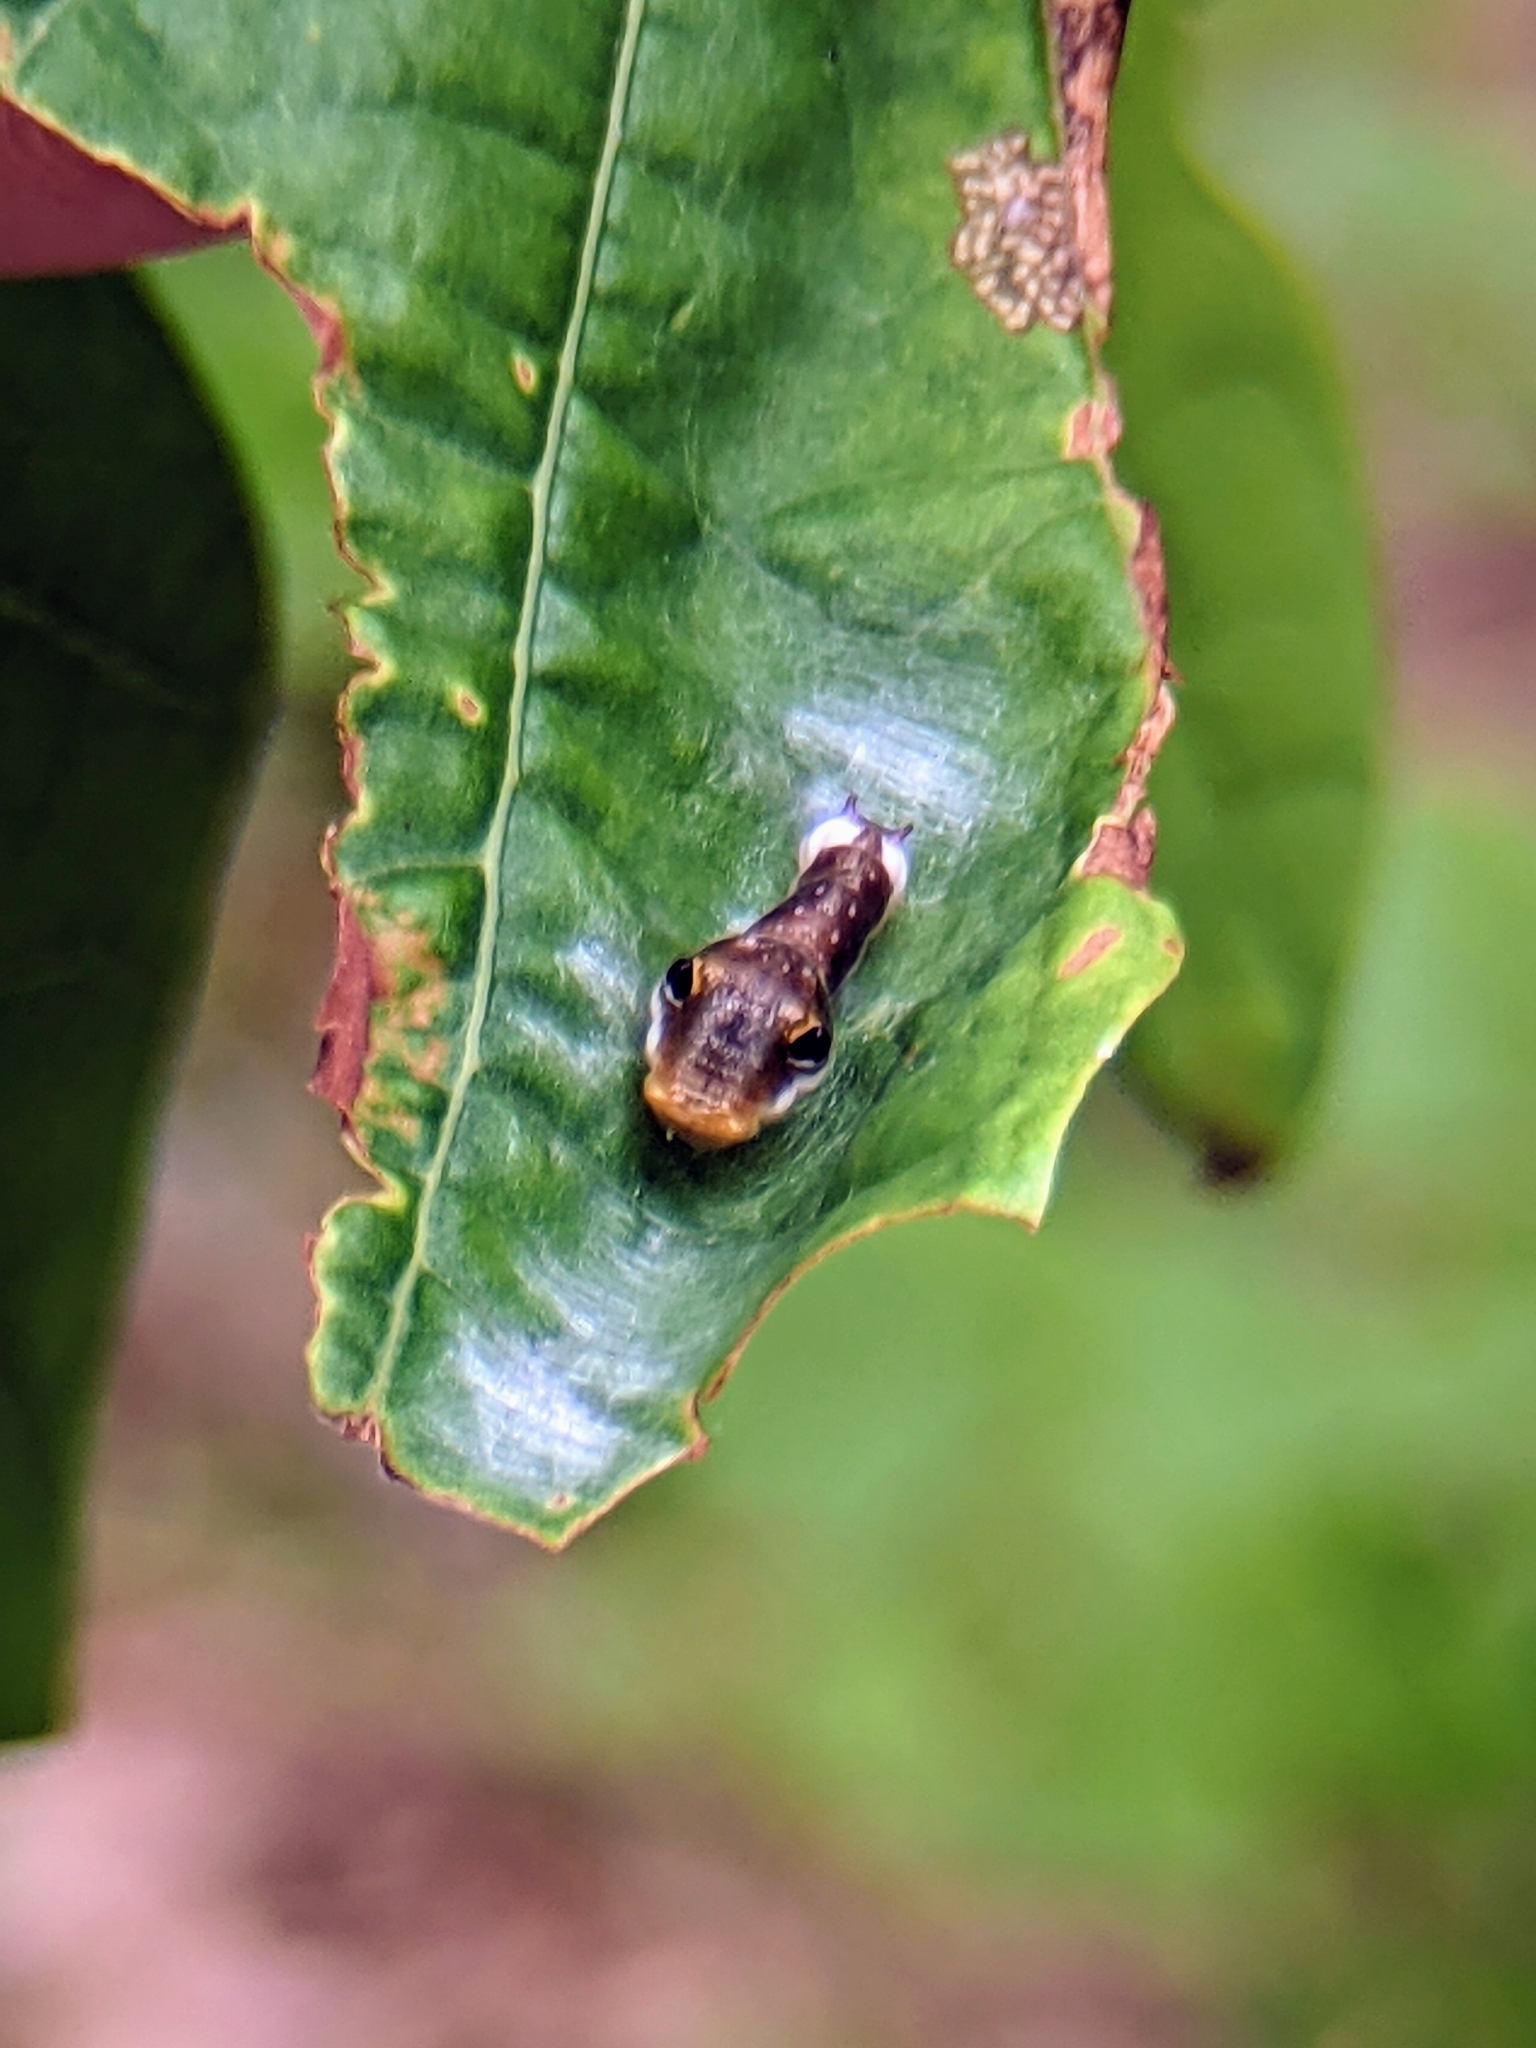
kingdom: Animalia
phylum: Arthropoda
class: Insecta
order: Lepidoptera
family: Papilionidae
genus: Papilio
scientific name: Papilio troilus
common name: Spicebush swallowtail
